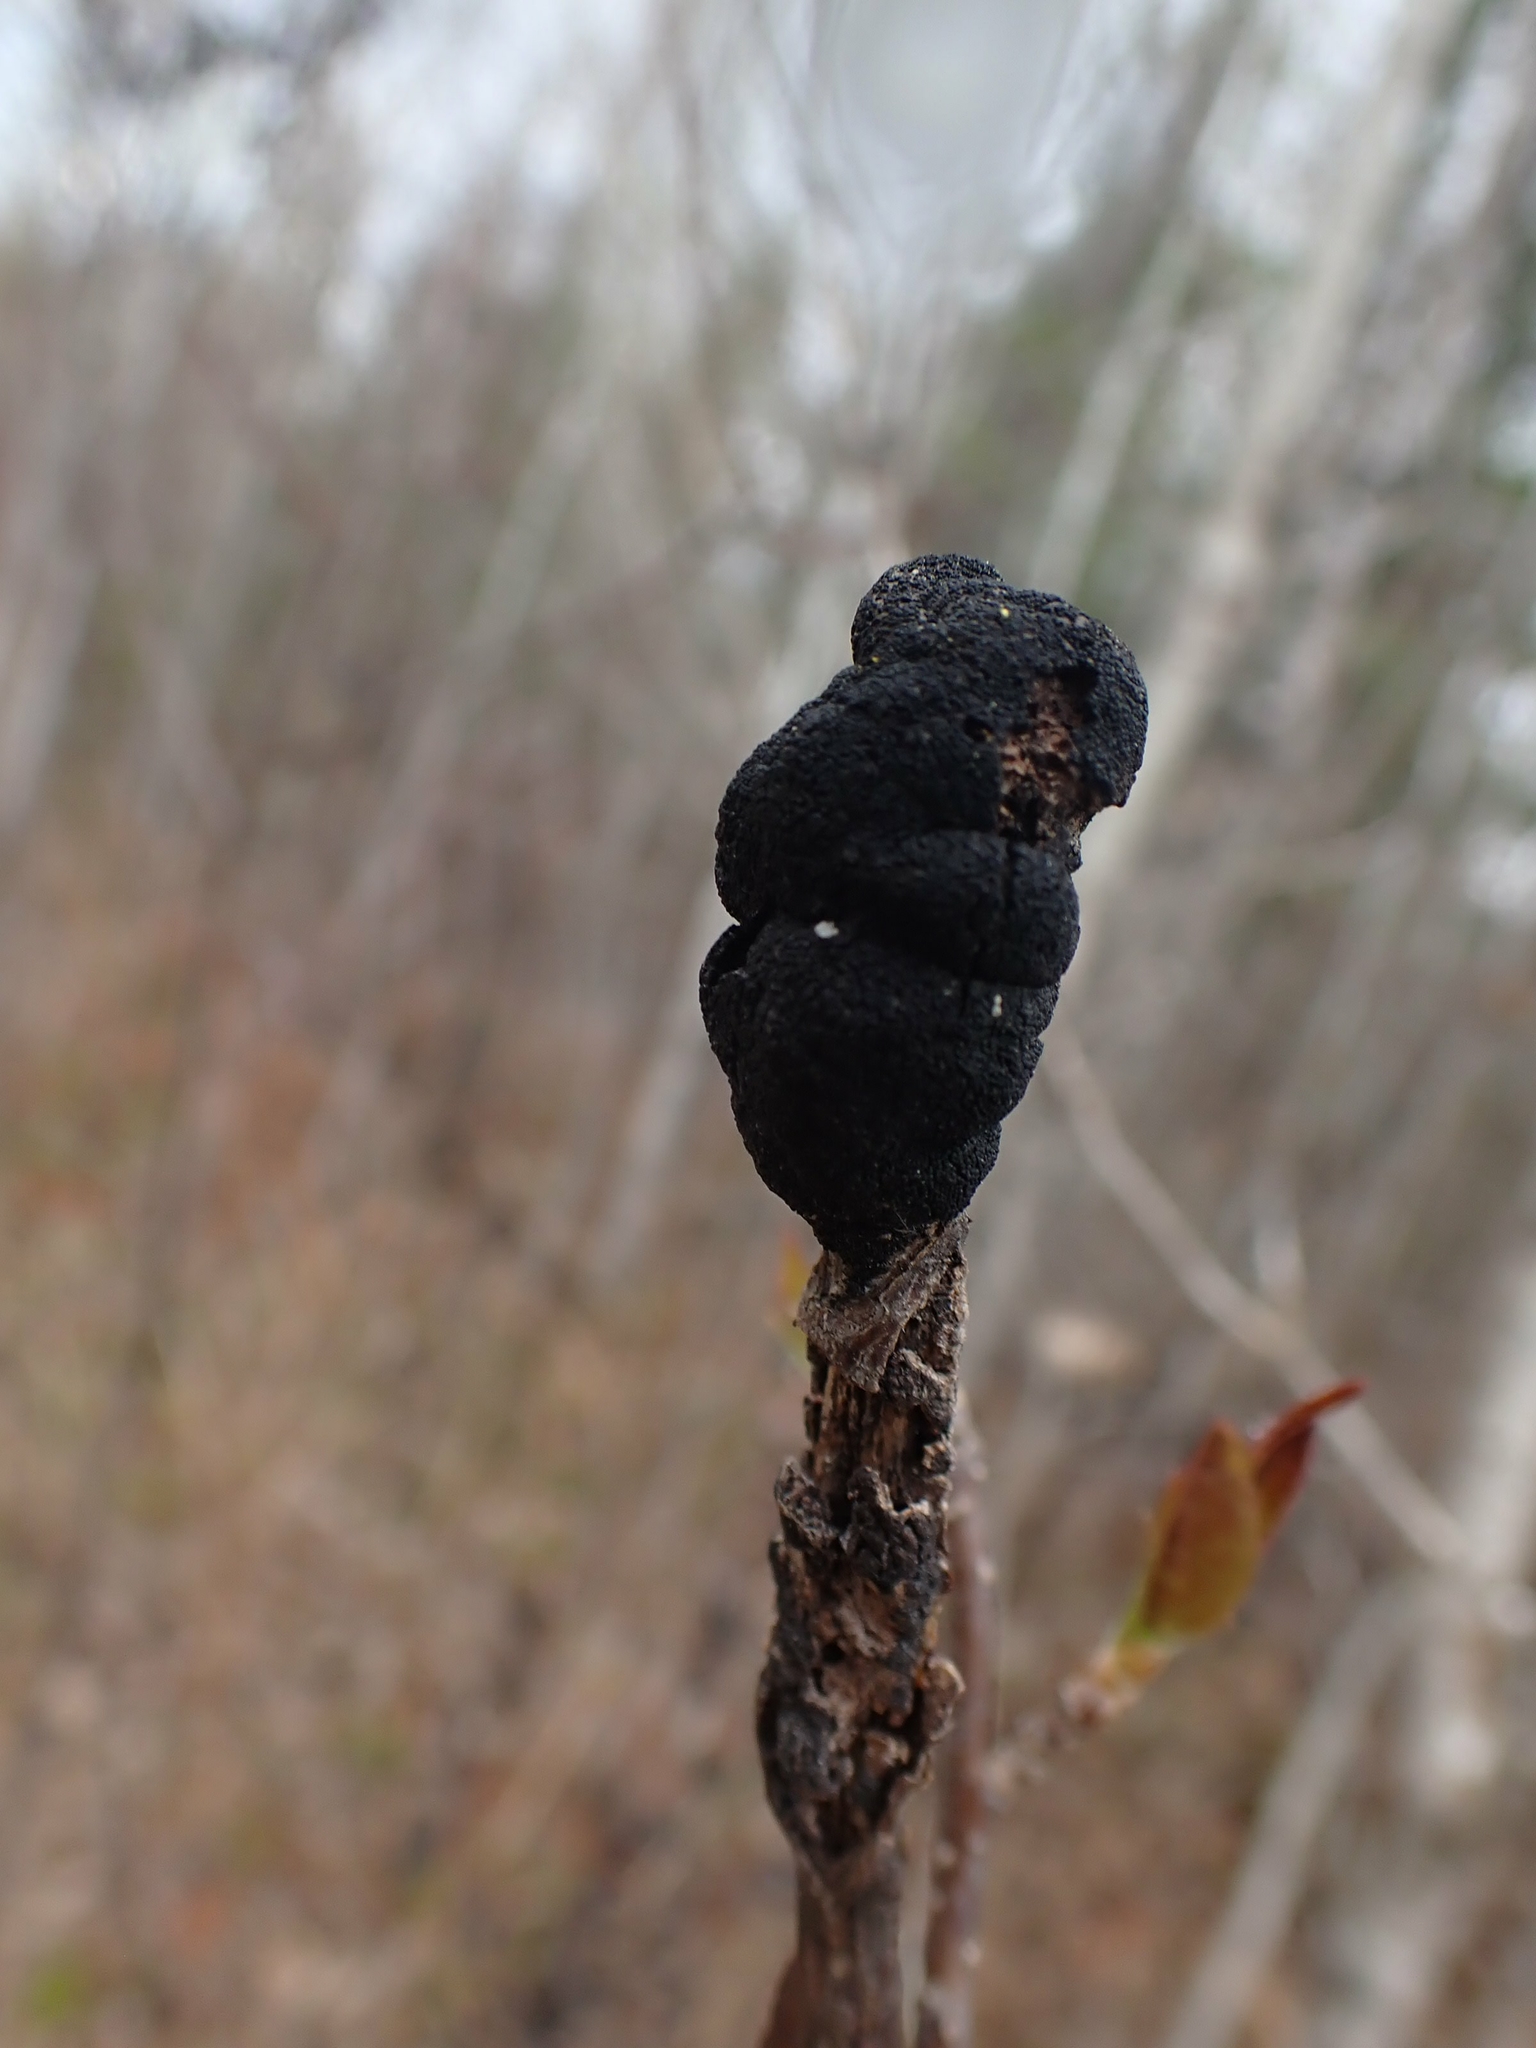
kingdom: Fungi
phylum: Ascomycota
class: Dothideomycetes
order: Venturiales
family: Venturiaceae
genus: Apiosporina
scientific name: Apiosporina morbosa
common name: Black knot
